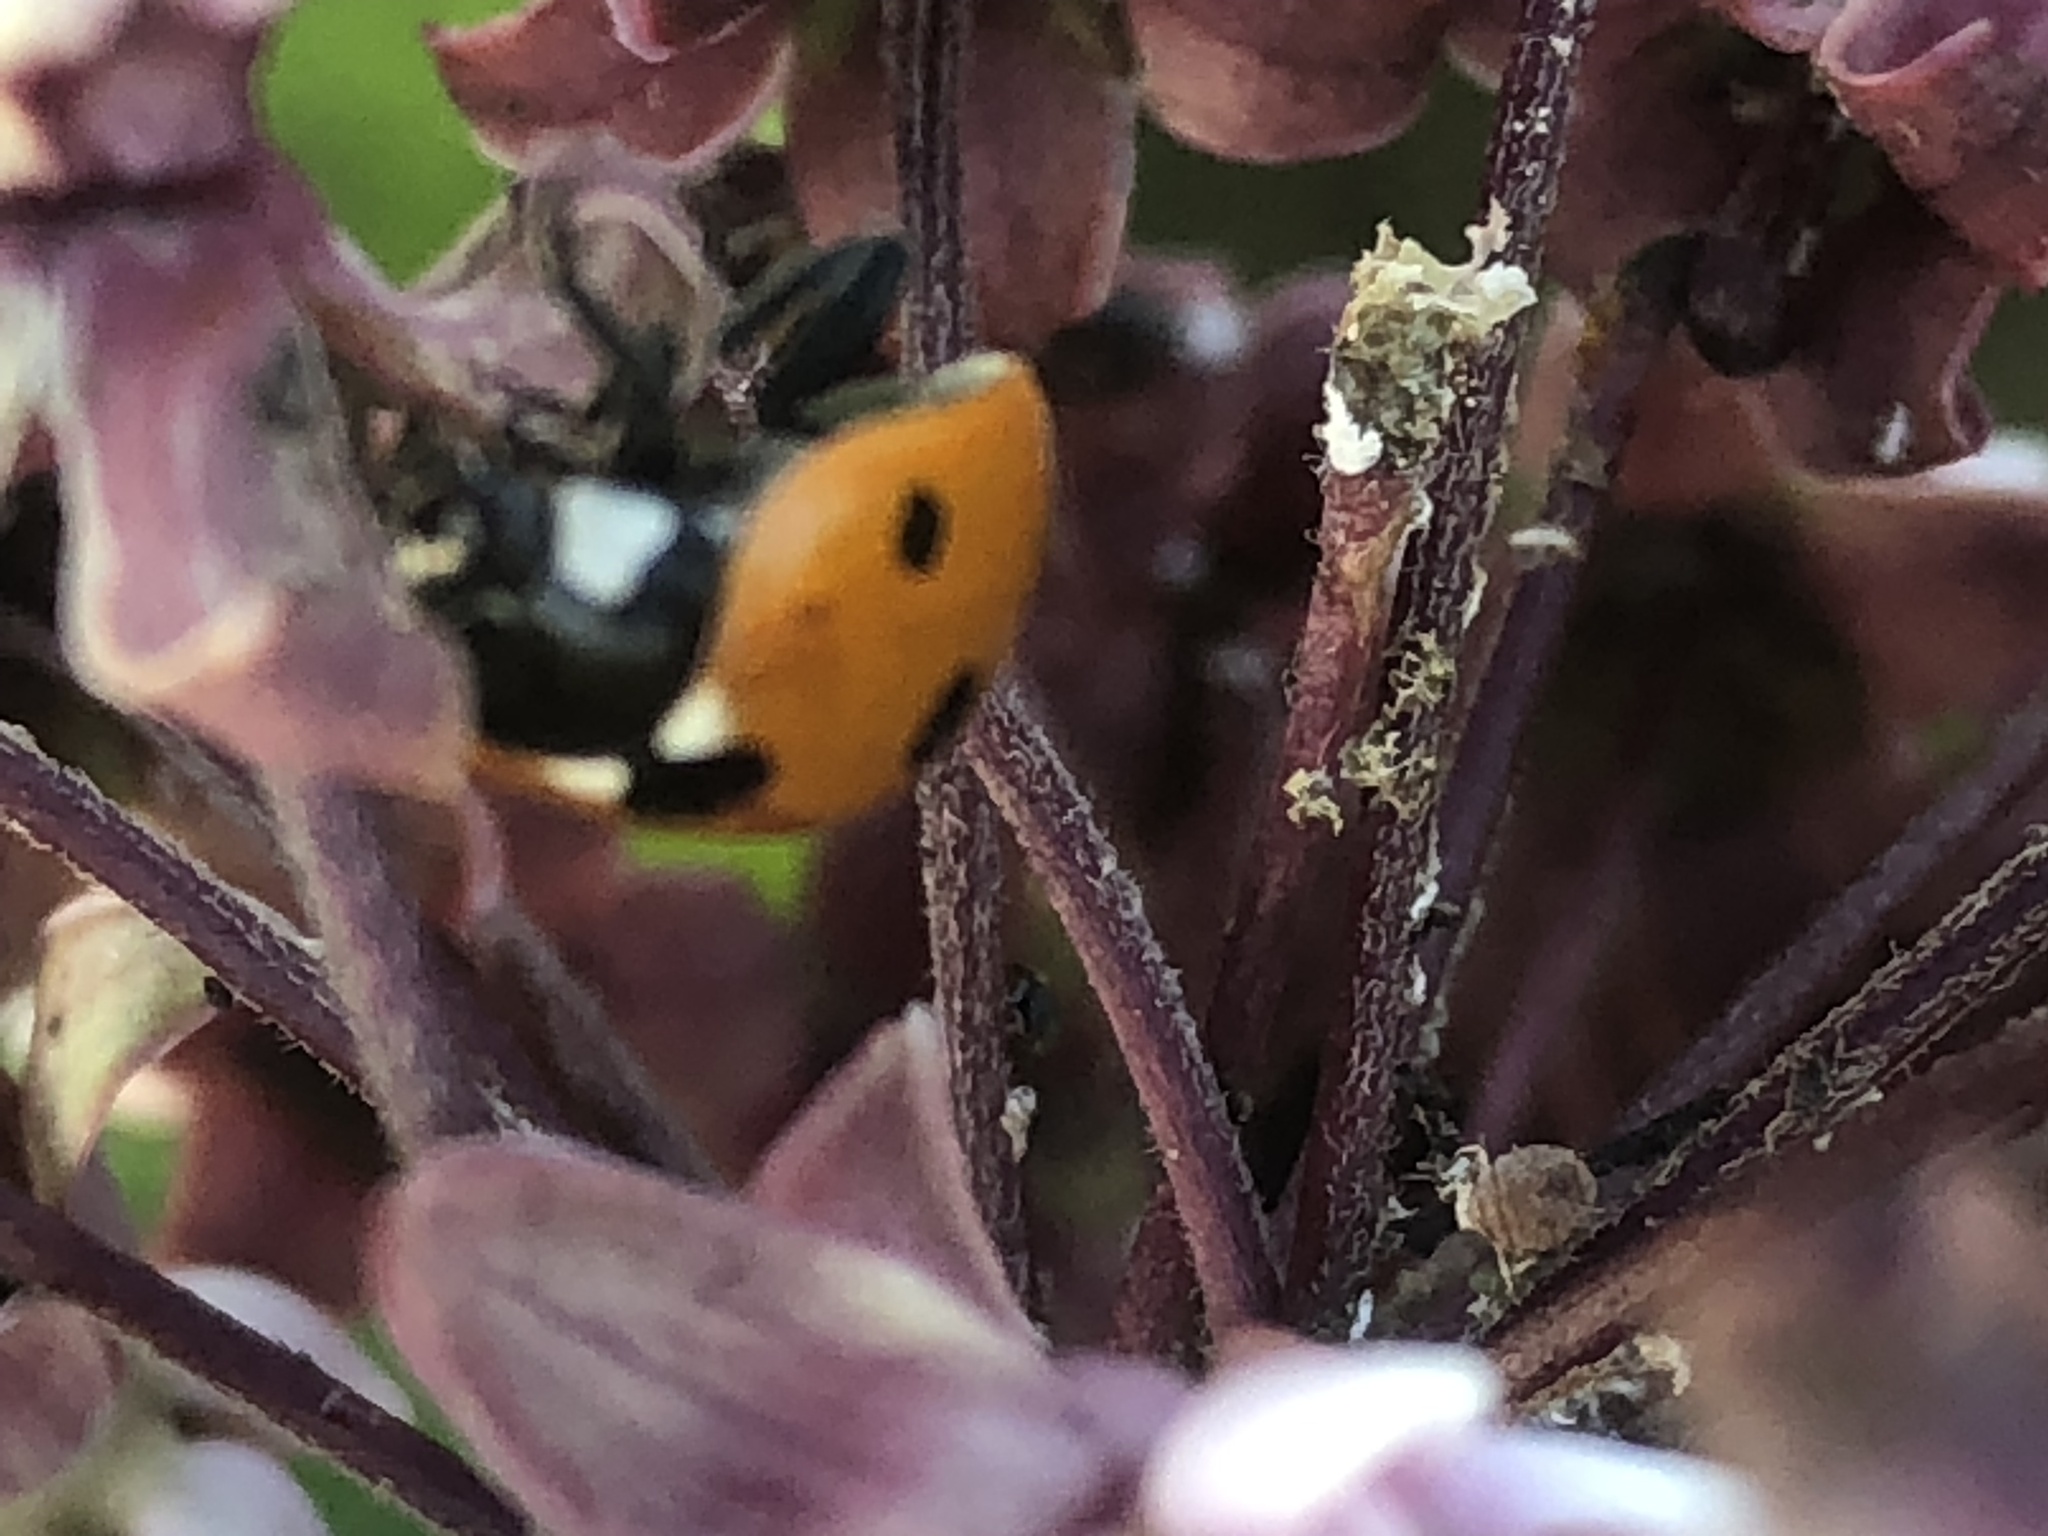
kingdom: Animalia
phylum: Arthropoda
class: Insecta
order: Coleoptera
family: Coccinellidae
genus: Coccinella
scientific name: Coccinella septempunctata
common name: Sevenspotted lady beetle
